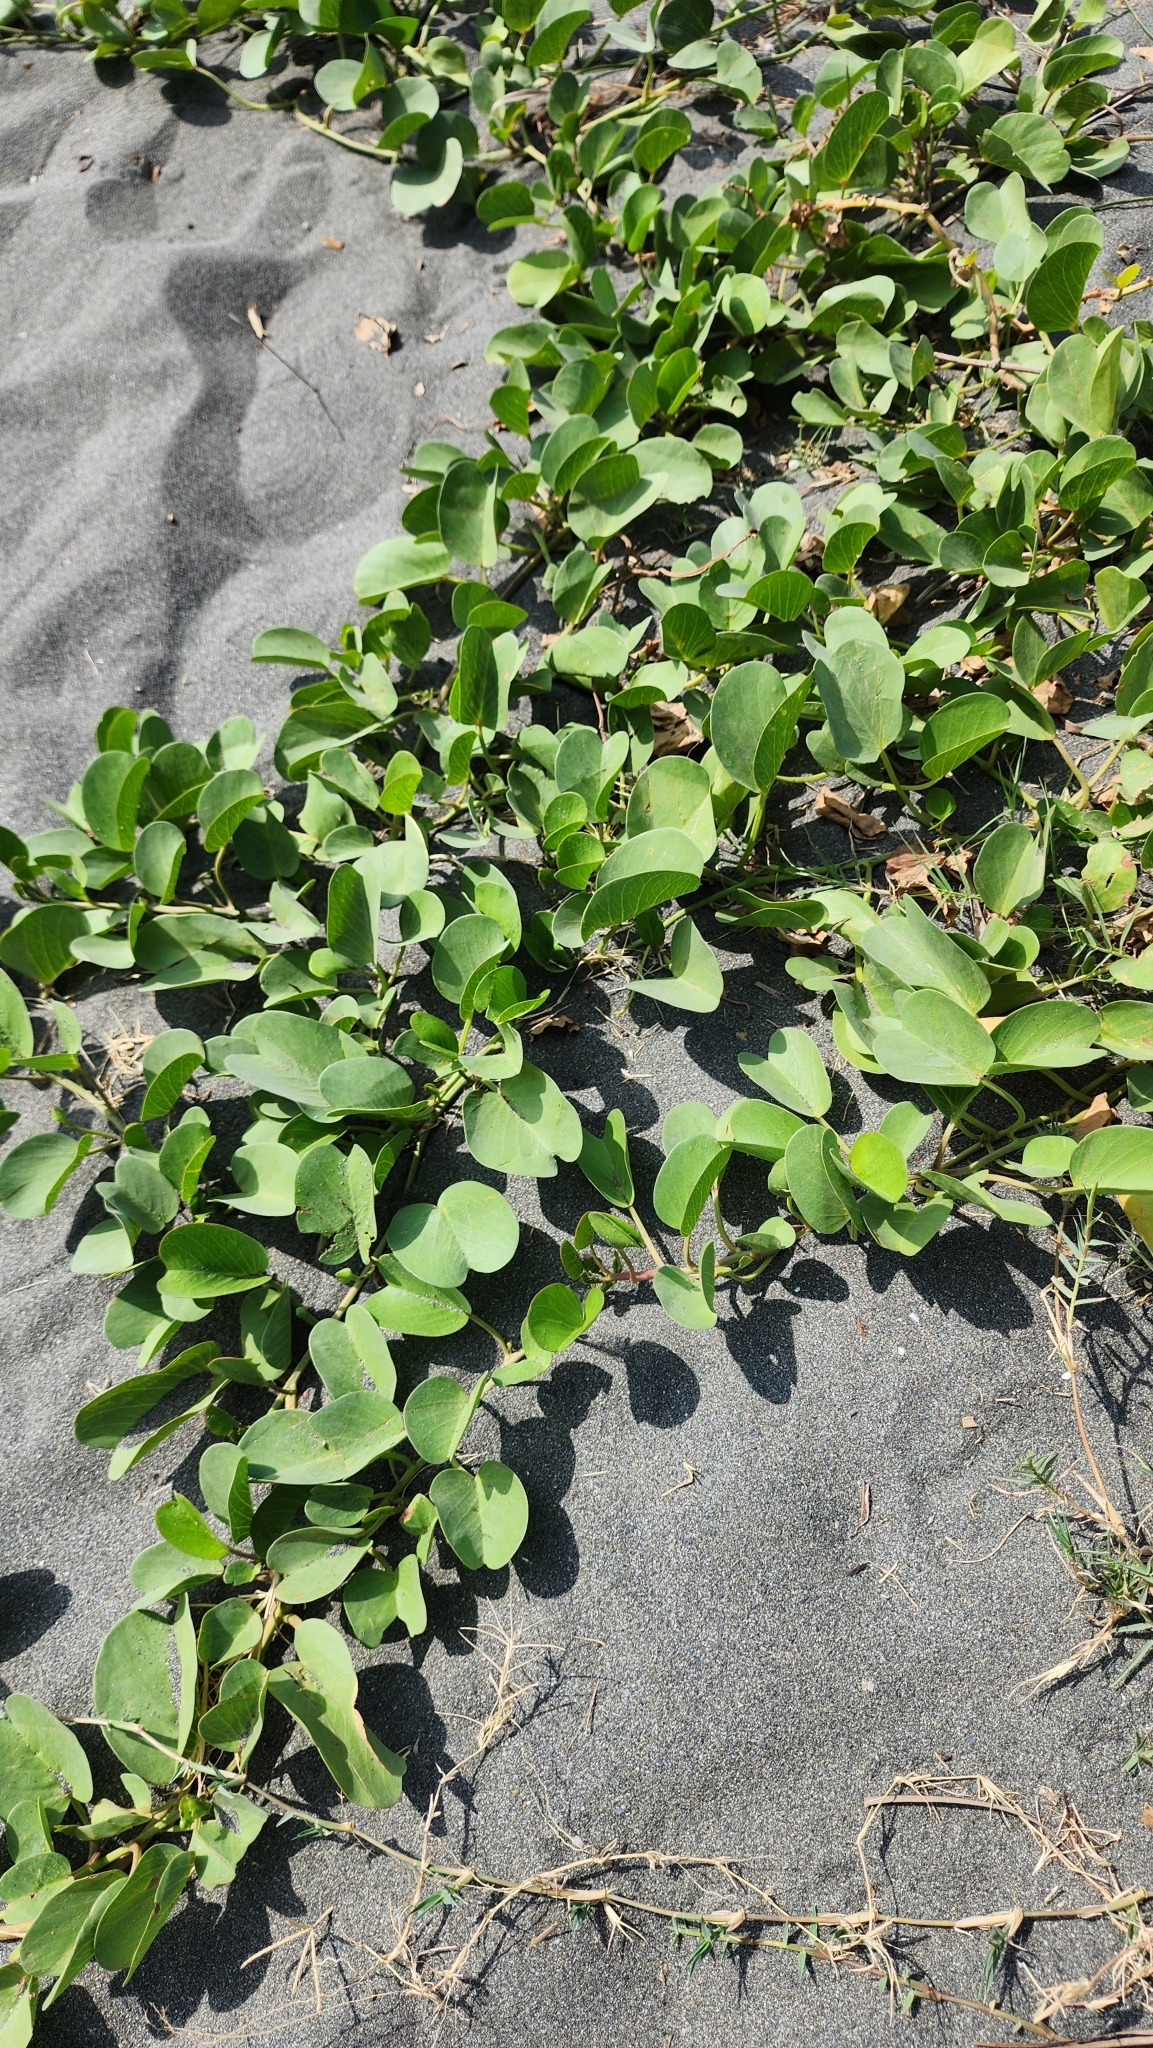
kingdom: Plantae
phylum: Tracheophyta
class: Magnoliopsida
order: Solanales
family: Convolvulaceae
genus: Ipomoea
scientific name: Ipomoea pes-caprae
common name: Beach morning glory
